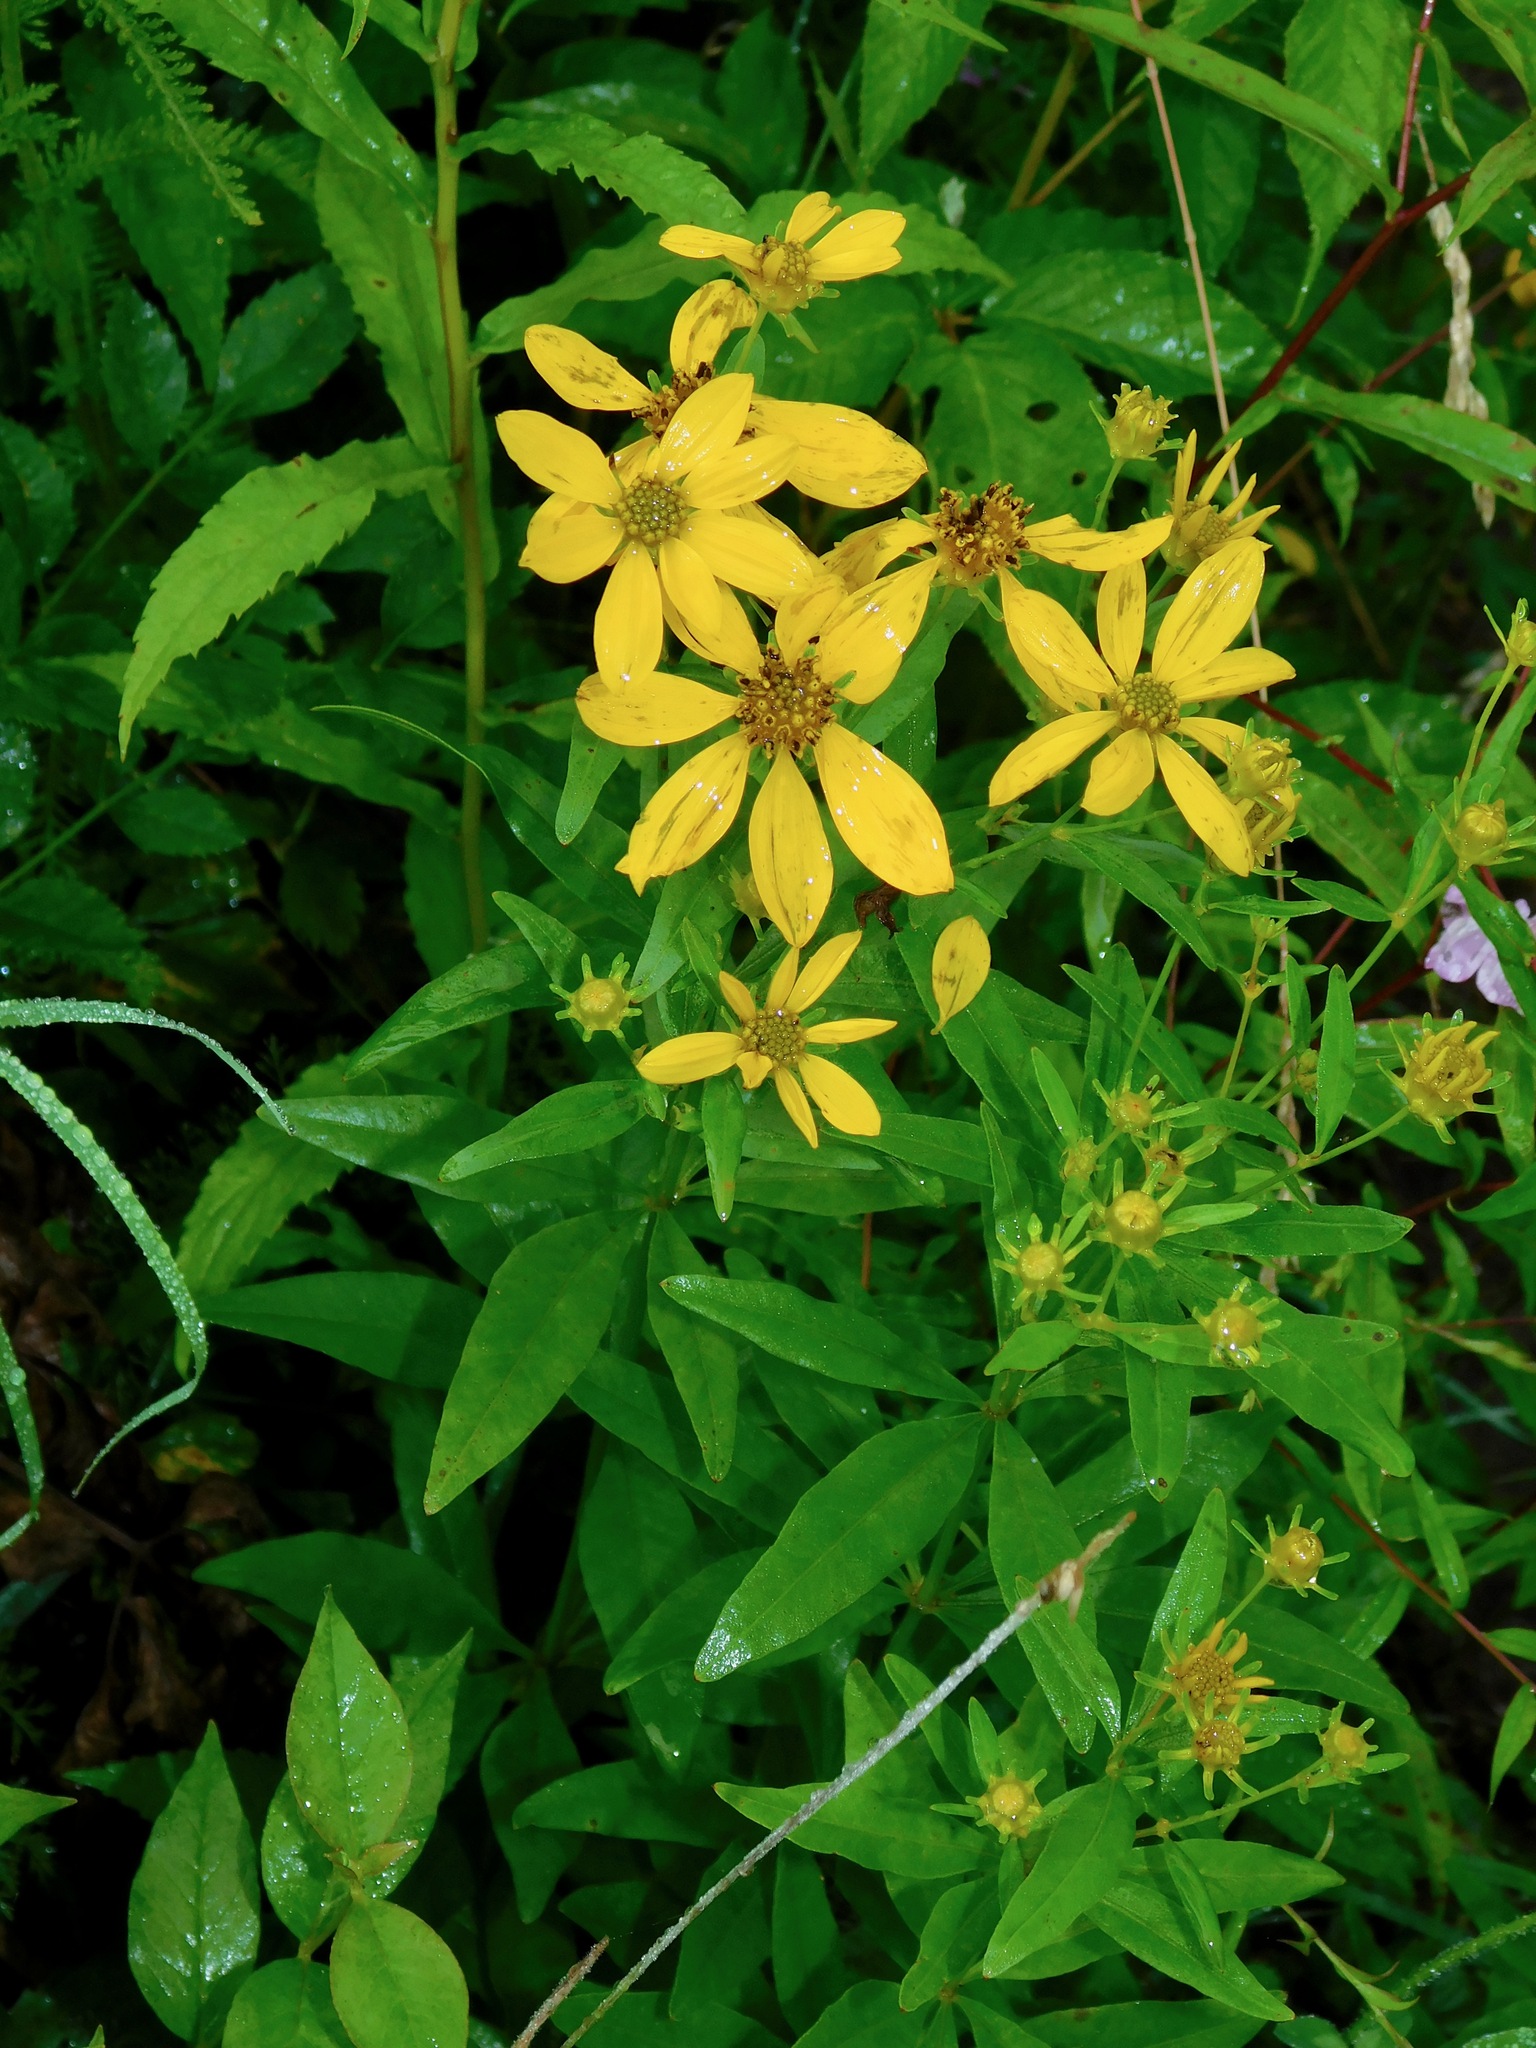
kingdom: Plantae
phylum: Tracheophyta
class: Magnoliopsida
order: Asterales
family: Asteraceae
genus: Coreopsis
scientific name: Coreopsis major
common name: Forest tickseed
